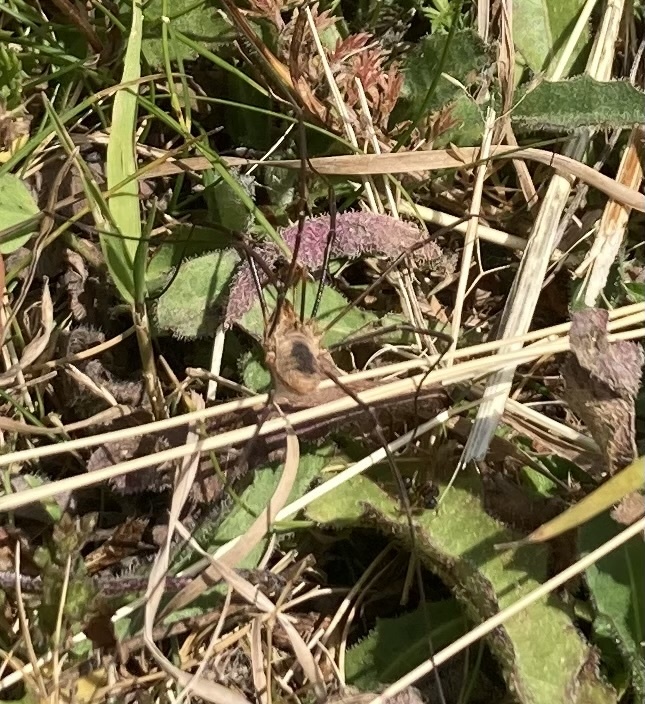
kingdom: Animalia
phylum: Arthropoda
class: Arachnida
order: Opiliones
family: Phalangiidae
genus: Phalangium
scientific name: Phalangium opilio
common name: Daddy longleg
